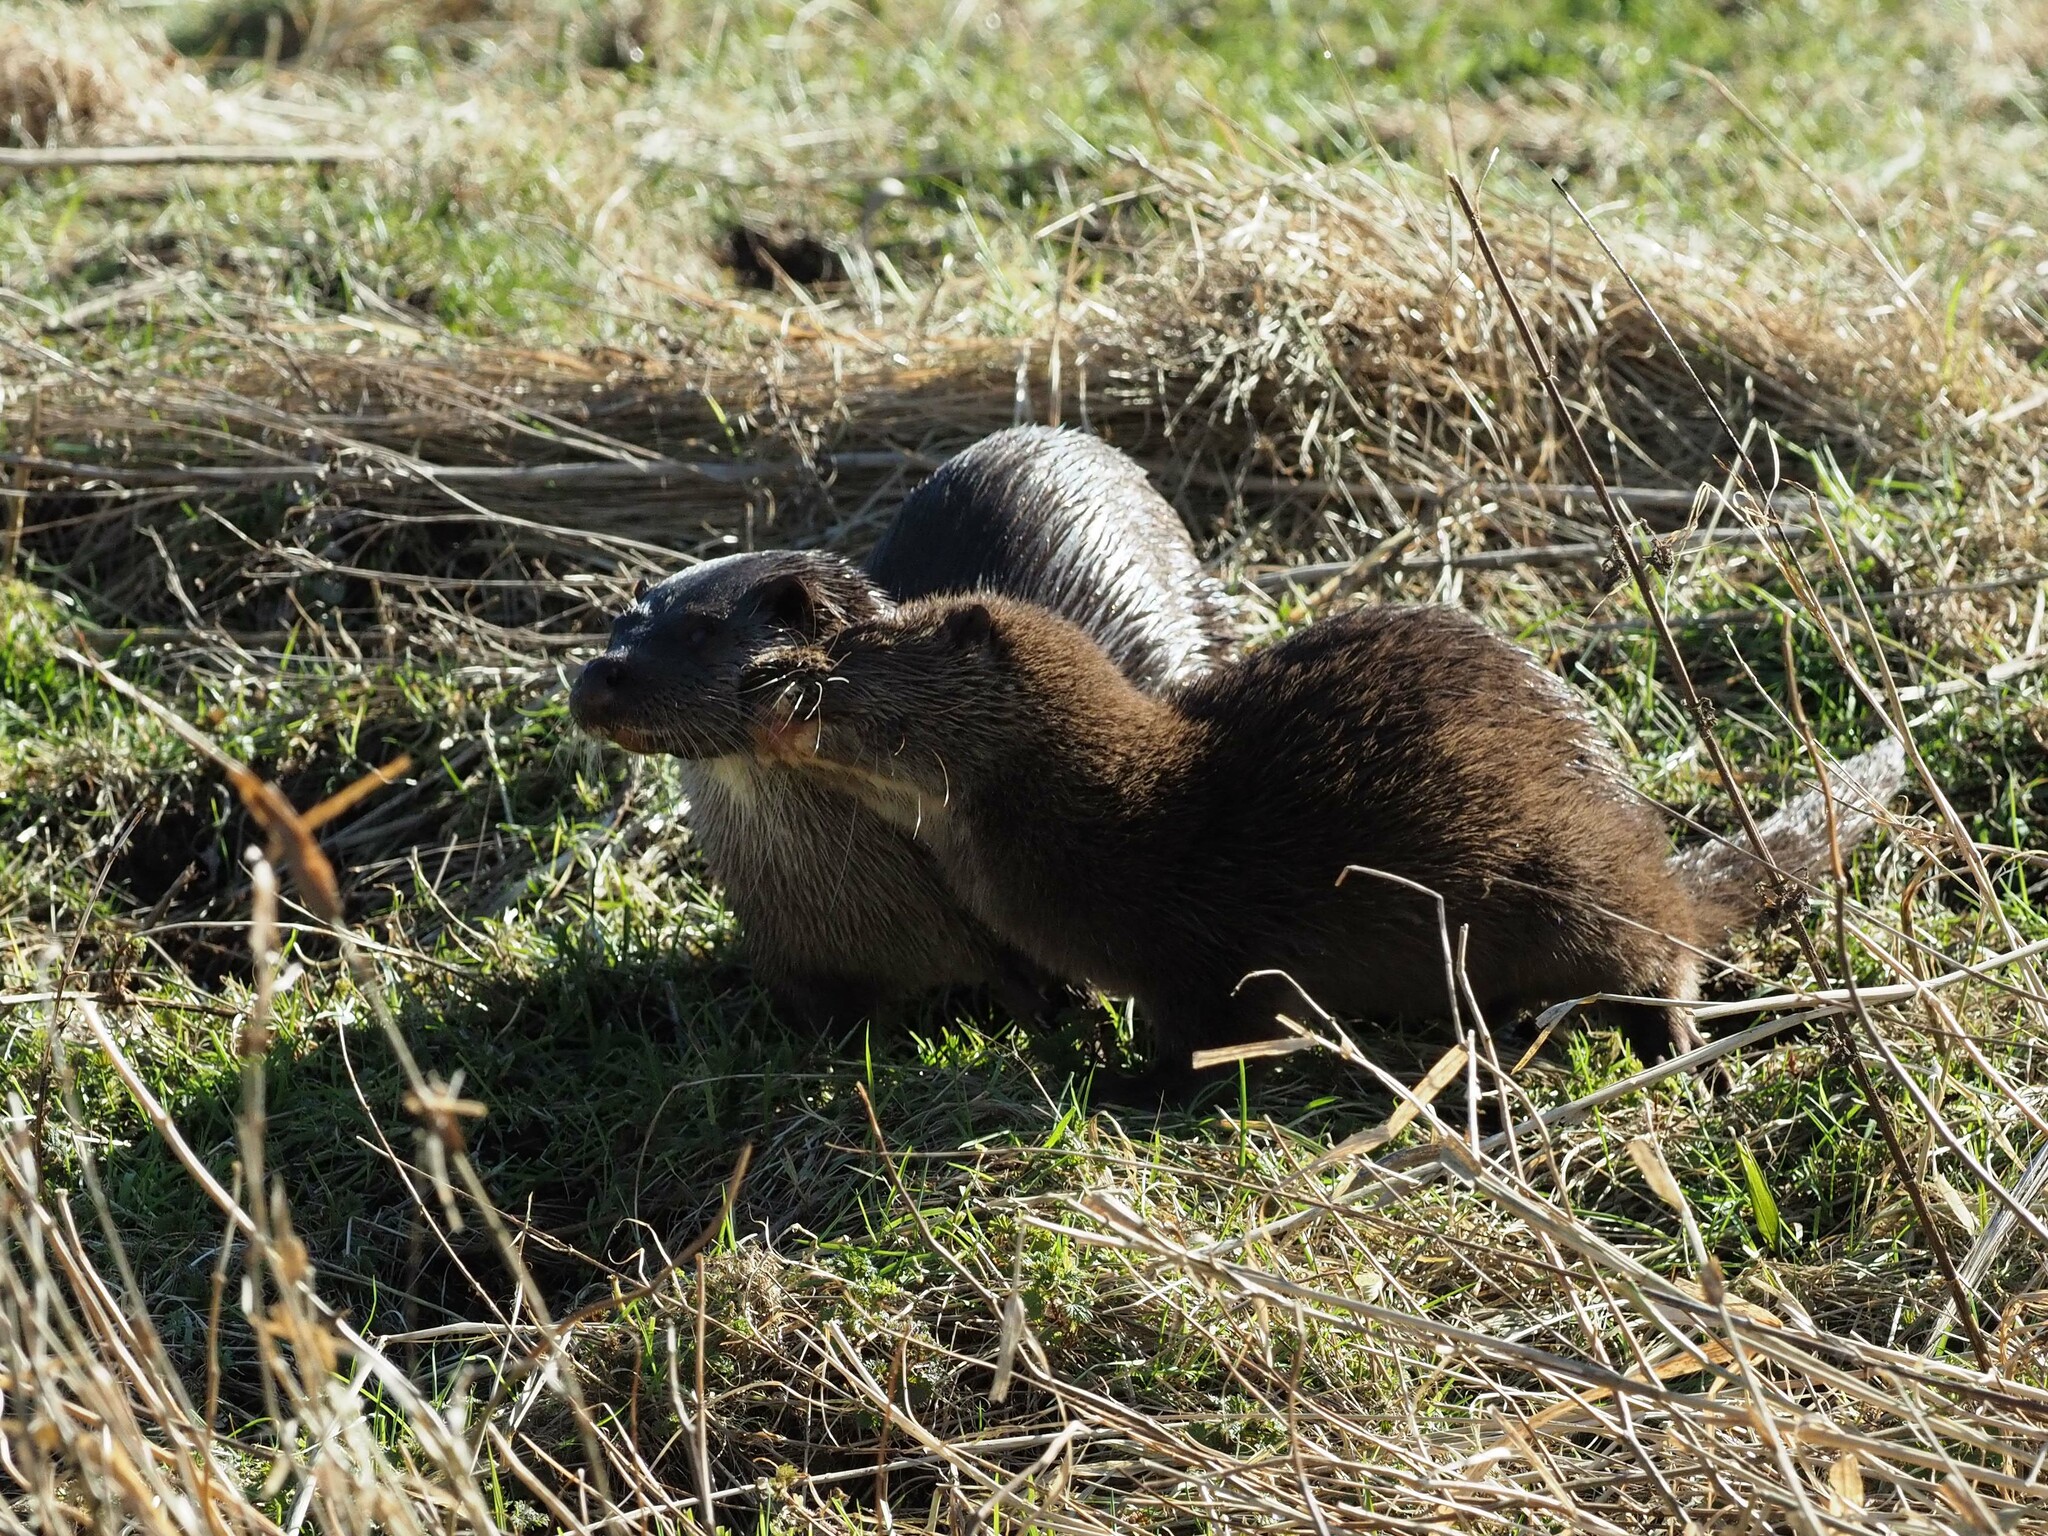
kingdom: Animalia
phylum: Chordata
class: Mammalia
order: Carnivora
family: Mustelidae
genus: Lutra
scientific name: Lutra lutra
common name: European otter
